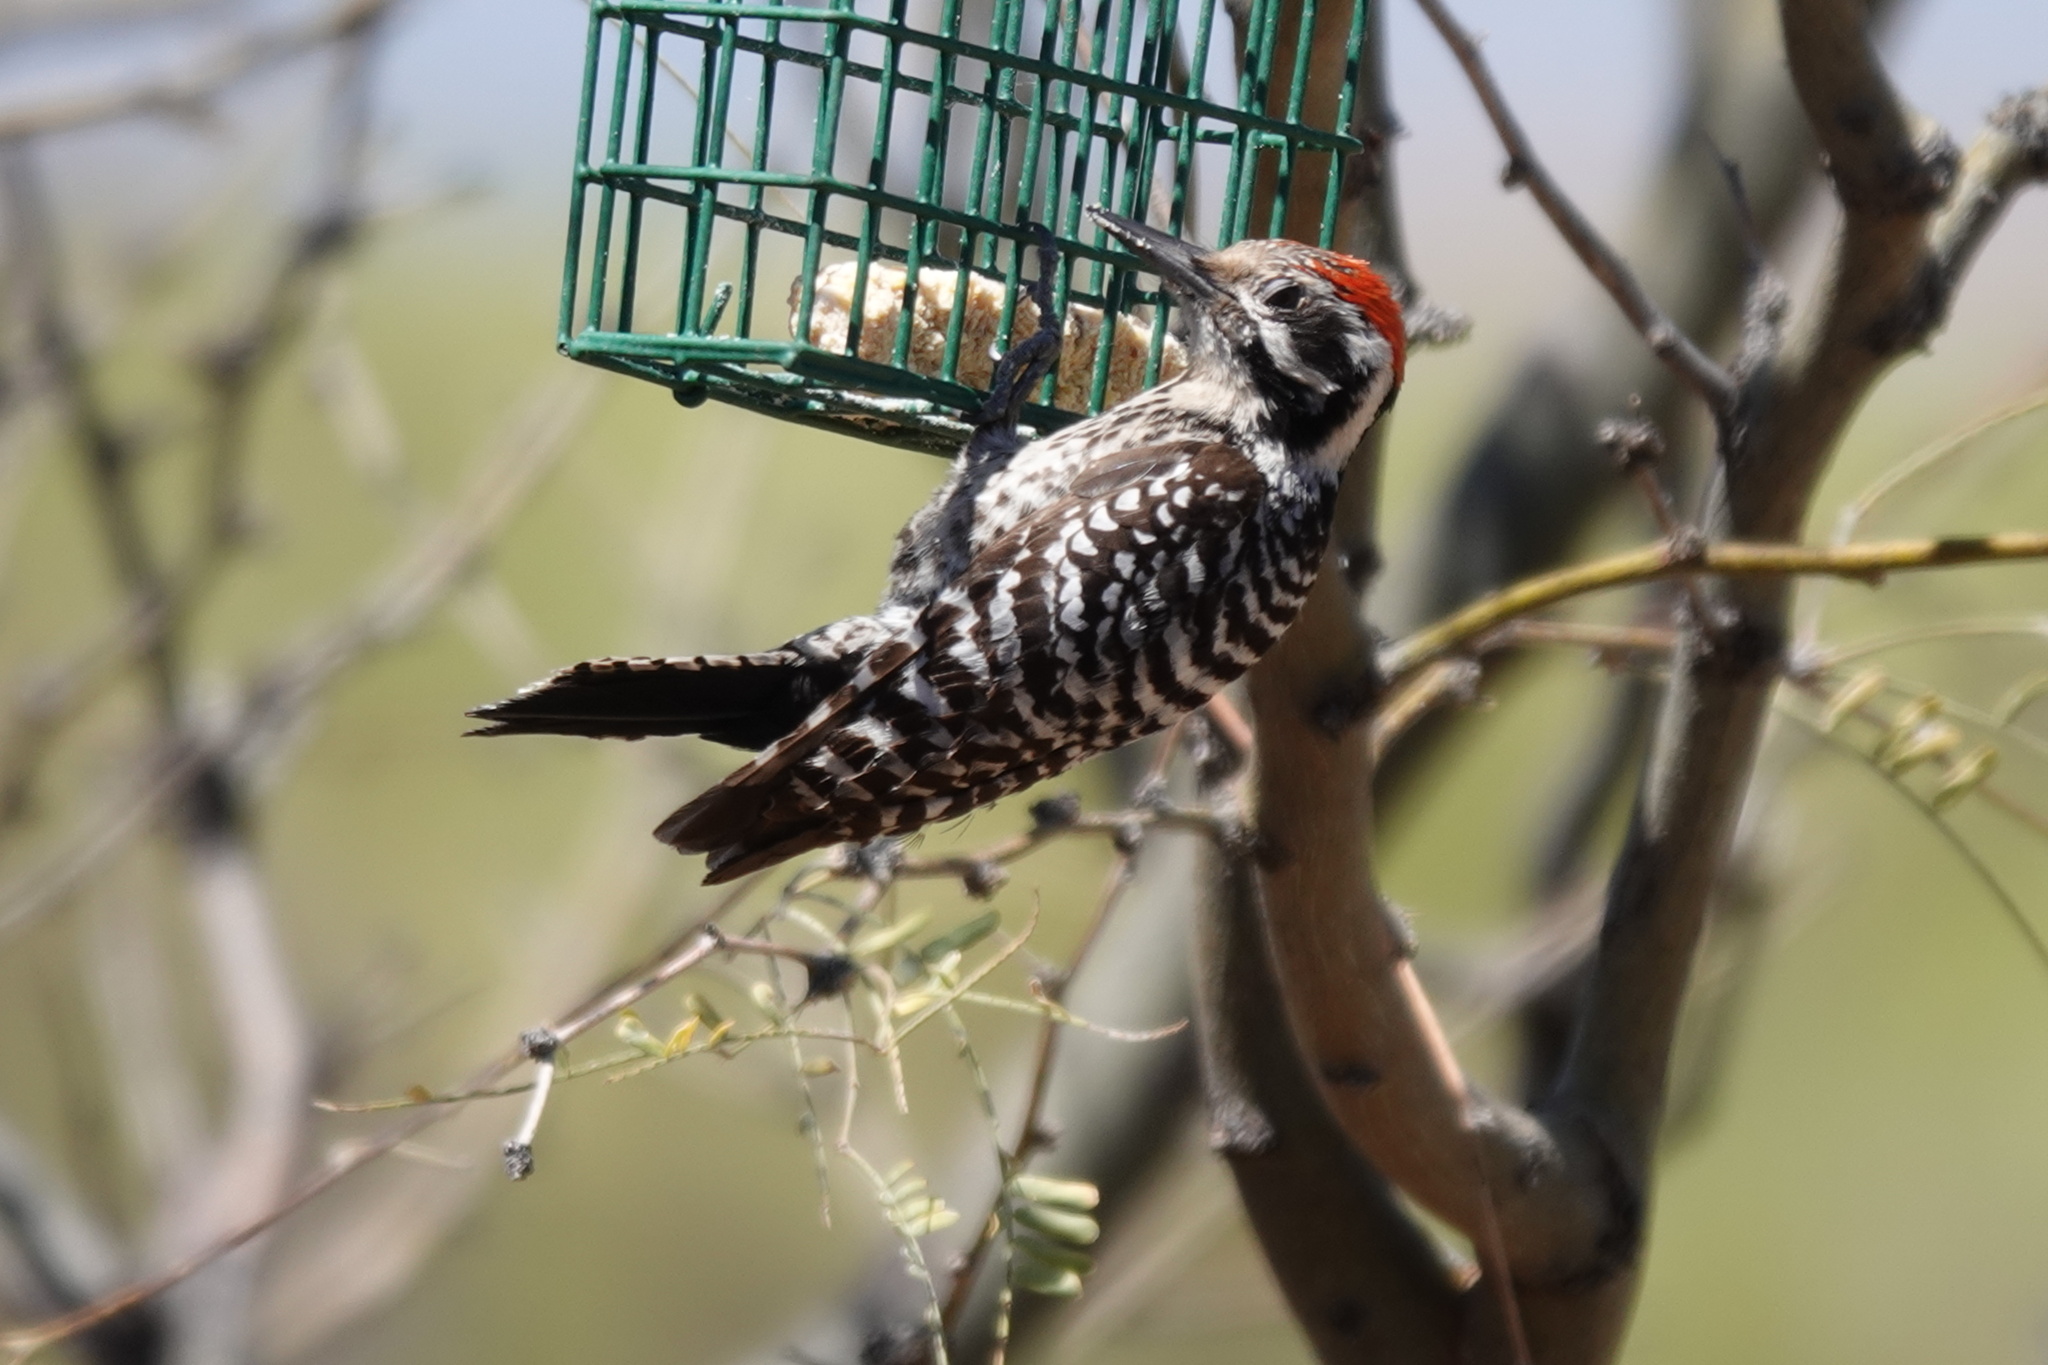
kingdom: Animalia
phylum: Chordata
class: Aves
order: Piciformes
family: Picidae
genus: Dryobates
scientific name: Dryobates scalaris
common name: Ladder-backed woodpecker
